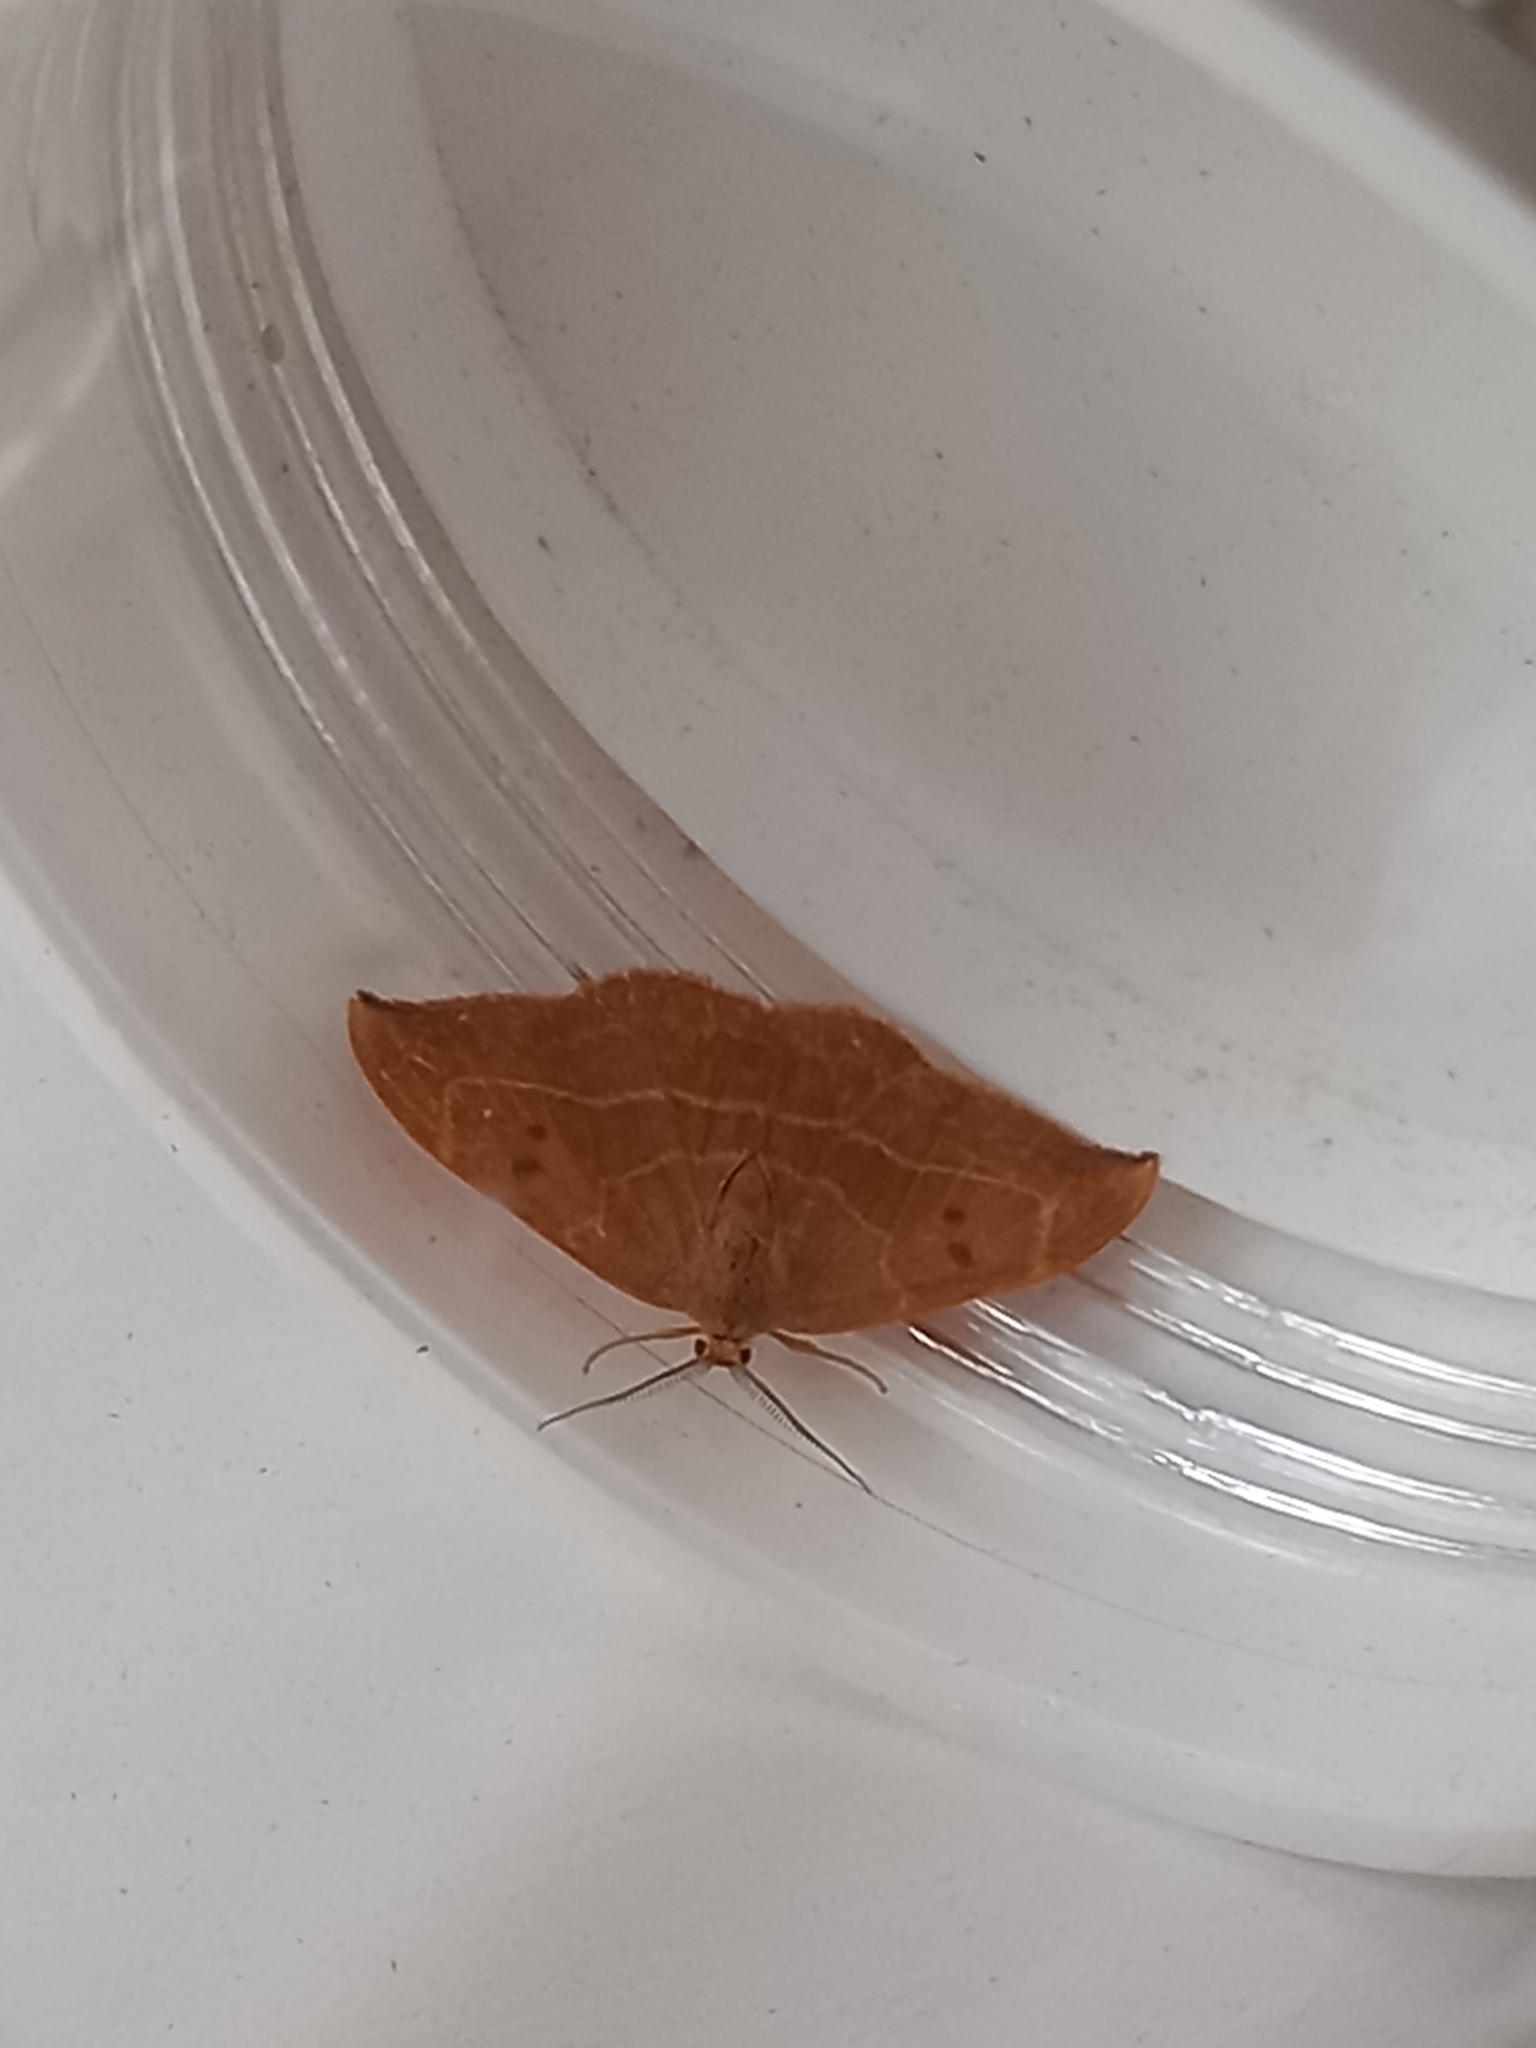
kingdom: Animalia
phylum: Arthropoda
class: Insecta
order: Lepidoptera
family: Drepanidae
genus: Watsonalla
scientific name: Watsonalla binaria
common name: Oak hook-tip
